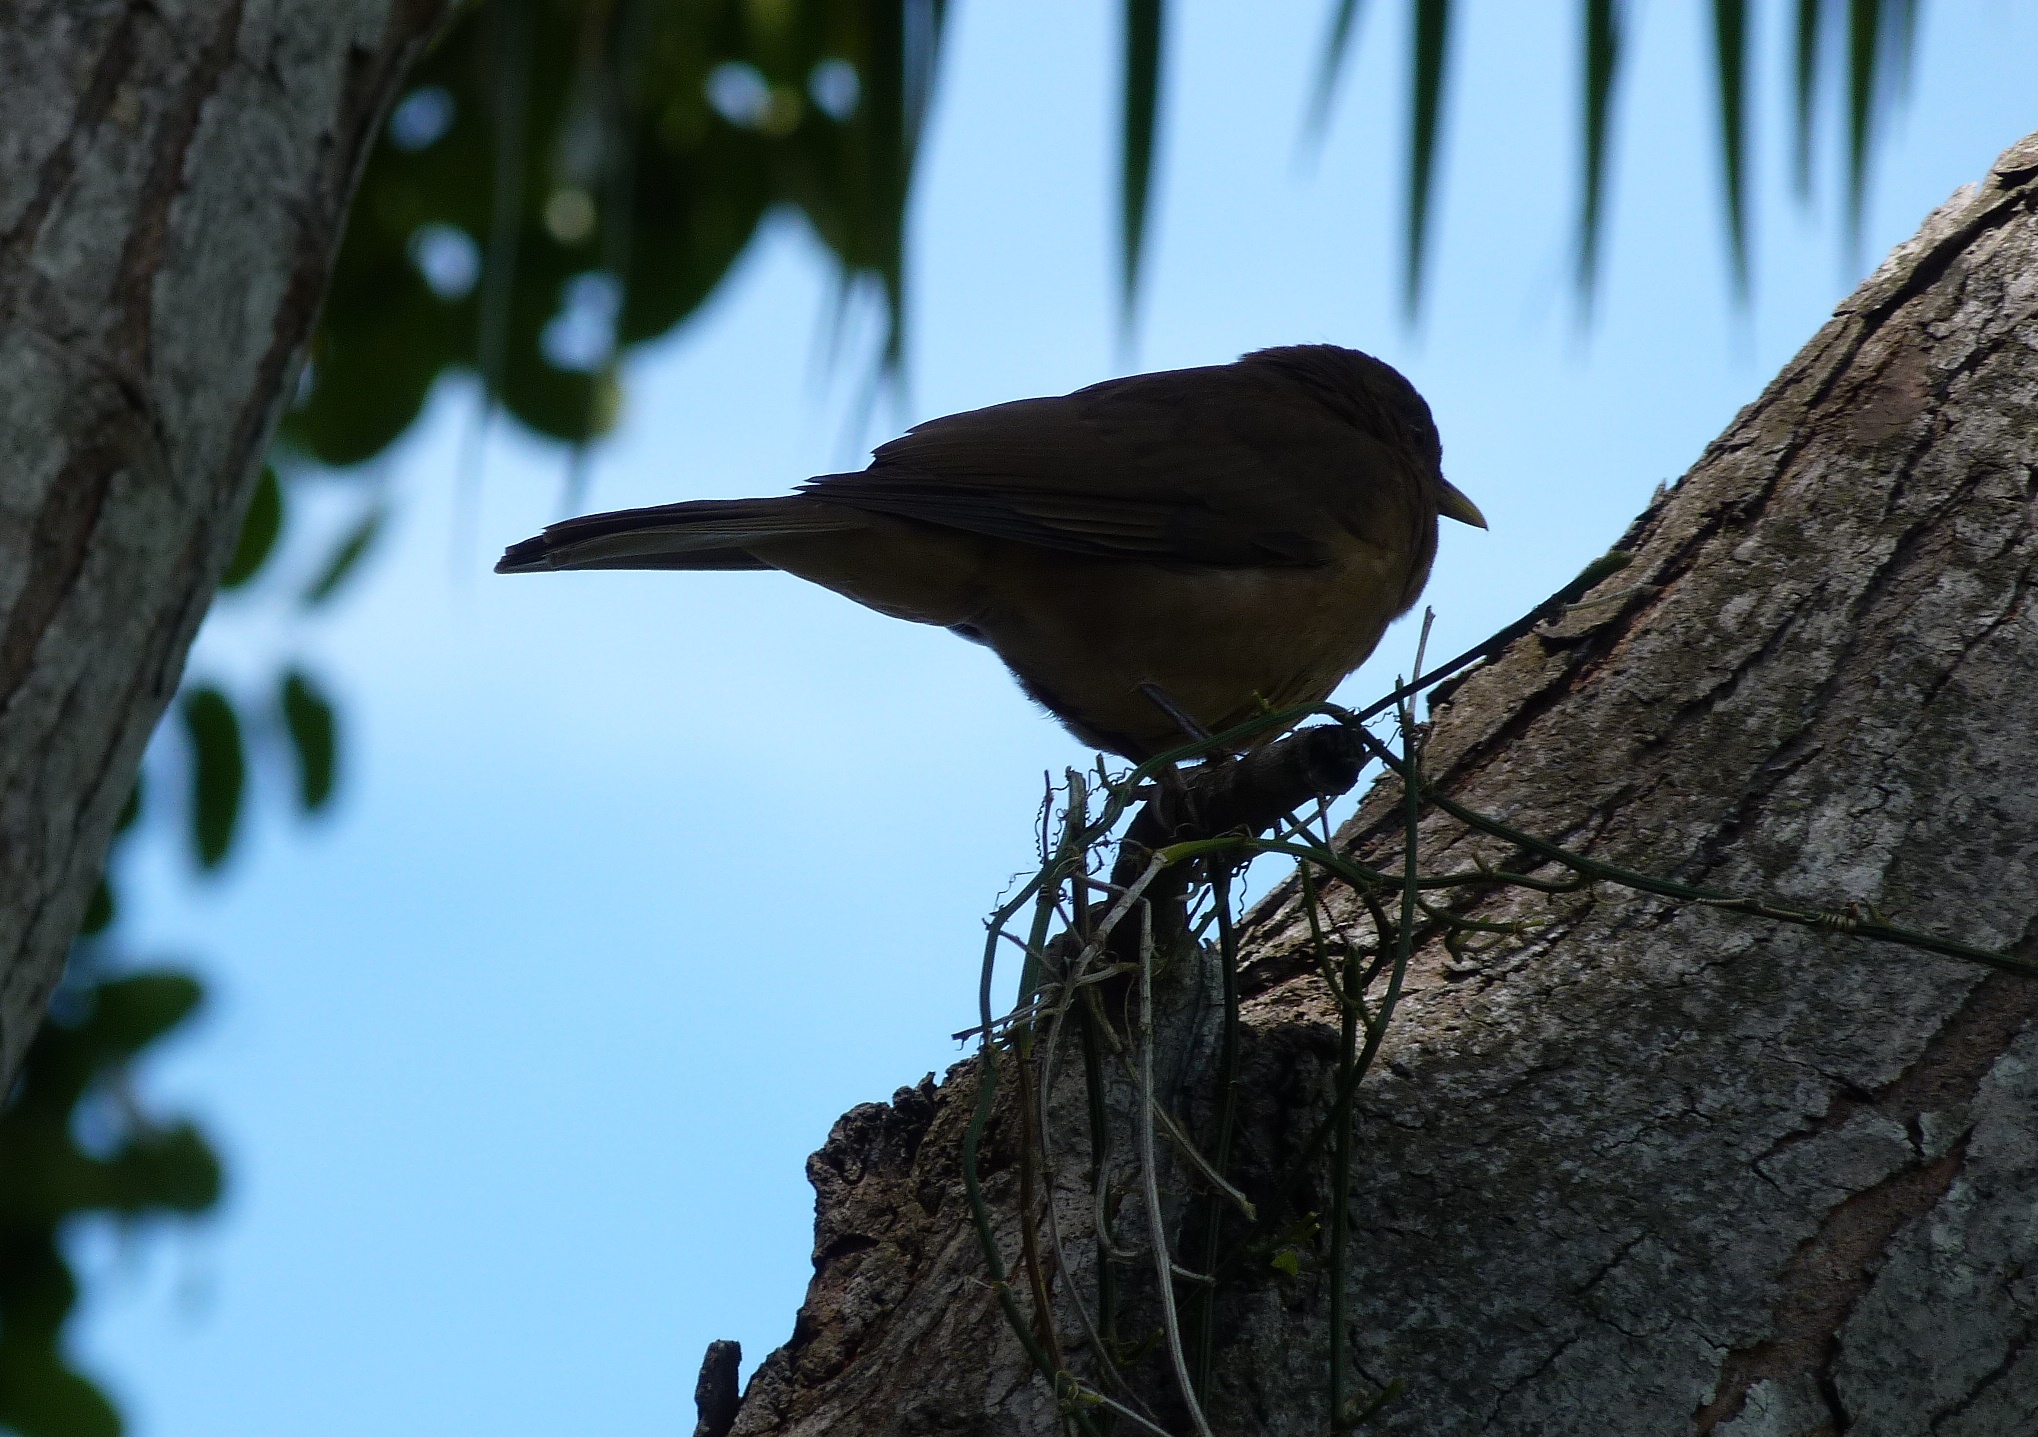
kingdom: Animalia
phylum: Chordata
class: Aves
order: Passeriformes
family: Turdidae
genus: Turdus
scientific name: Turdus grayi
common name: Clay-colored thrush
